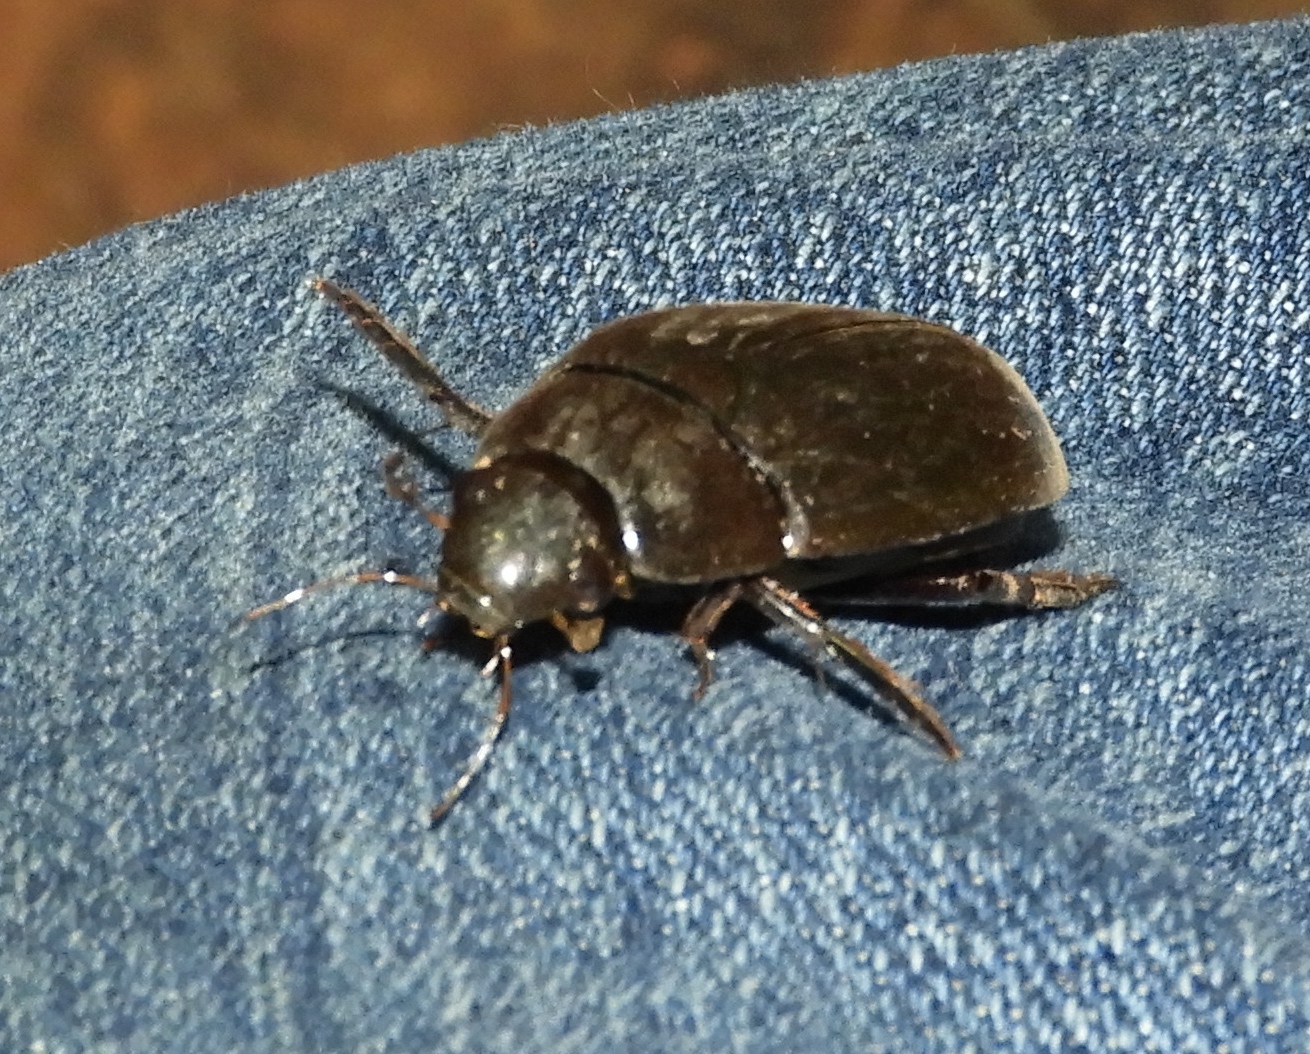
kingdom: Animalia
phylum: Arthropoda
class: Insecta
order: Coleoptera
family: Hydrophilidae
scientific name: Hydrophilidae
